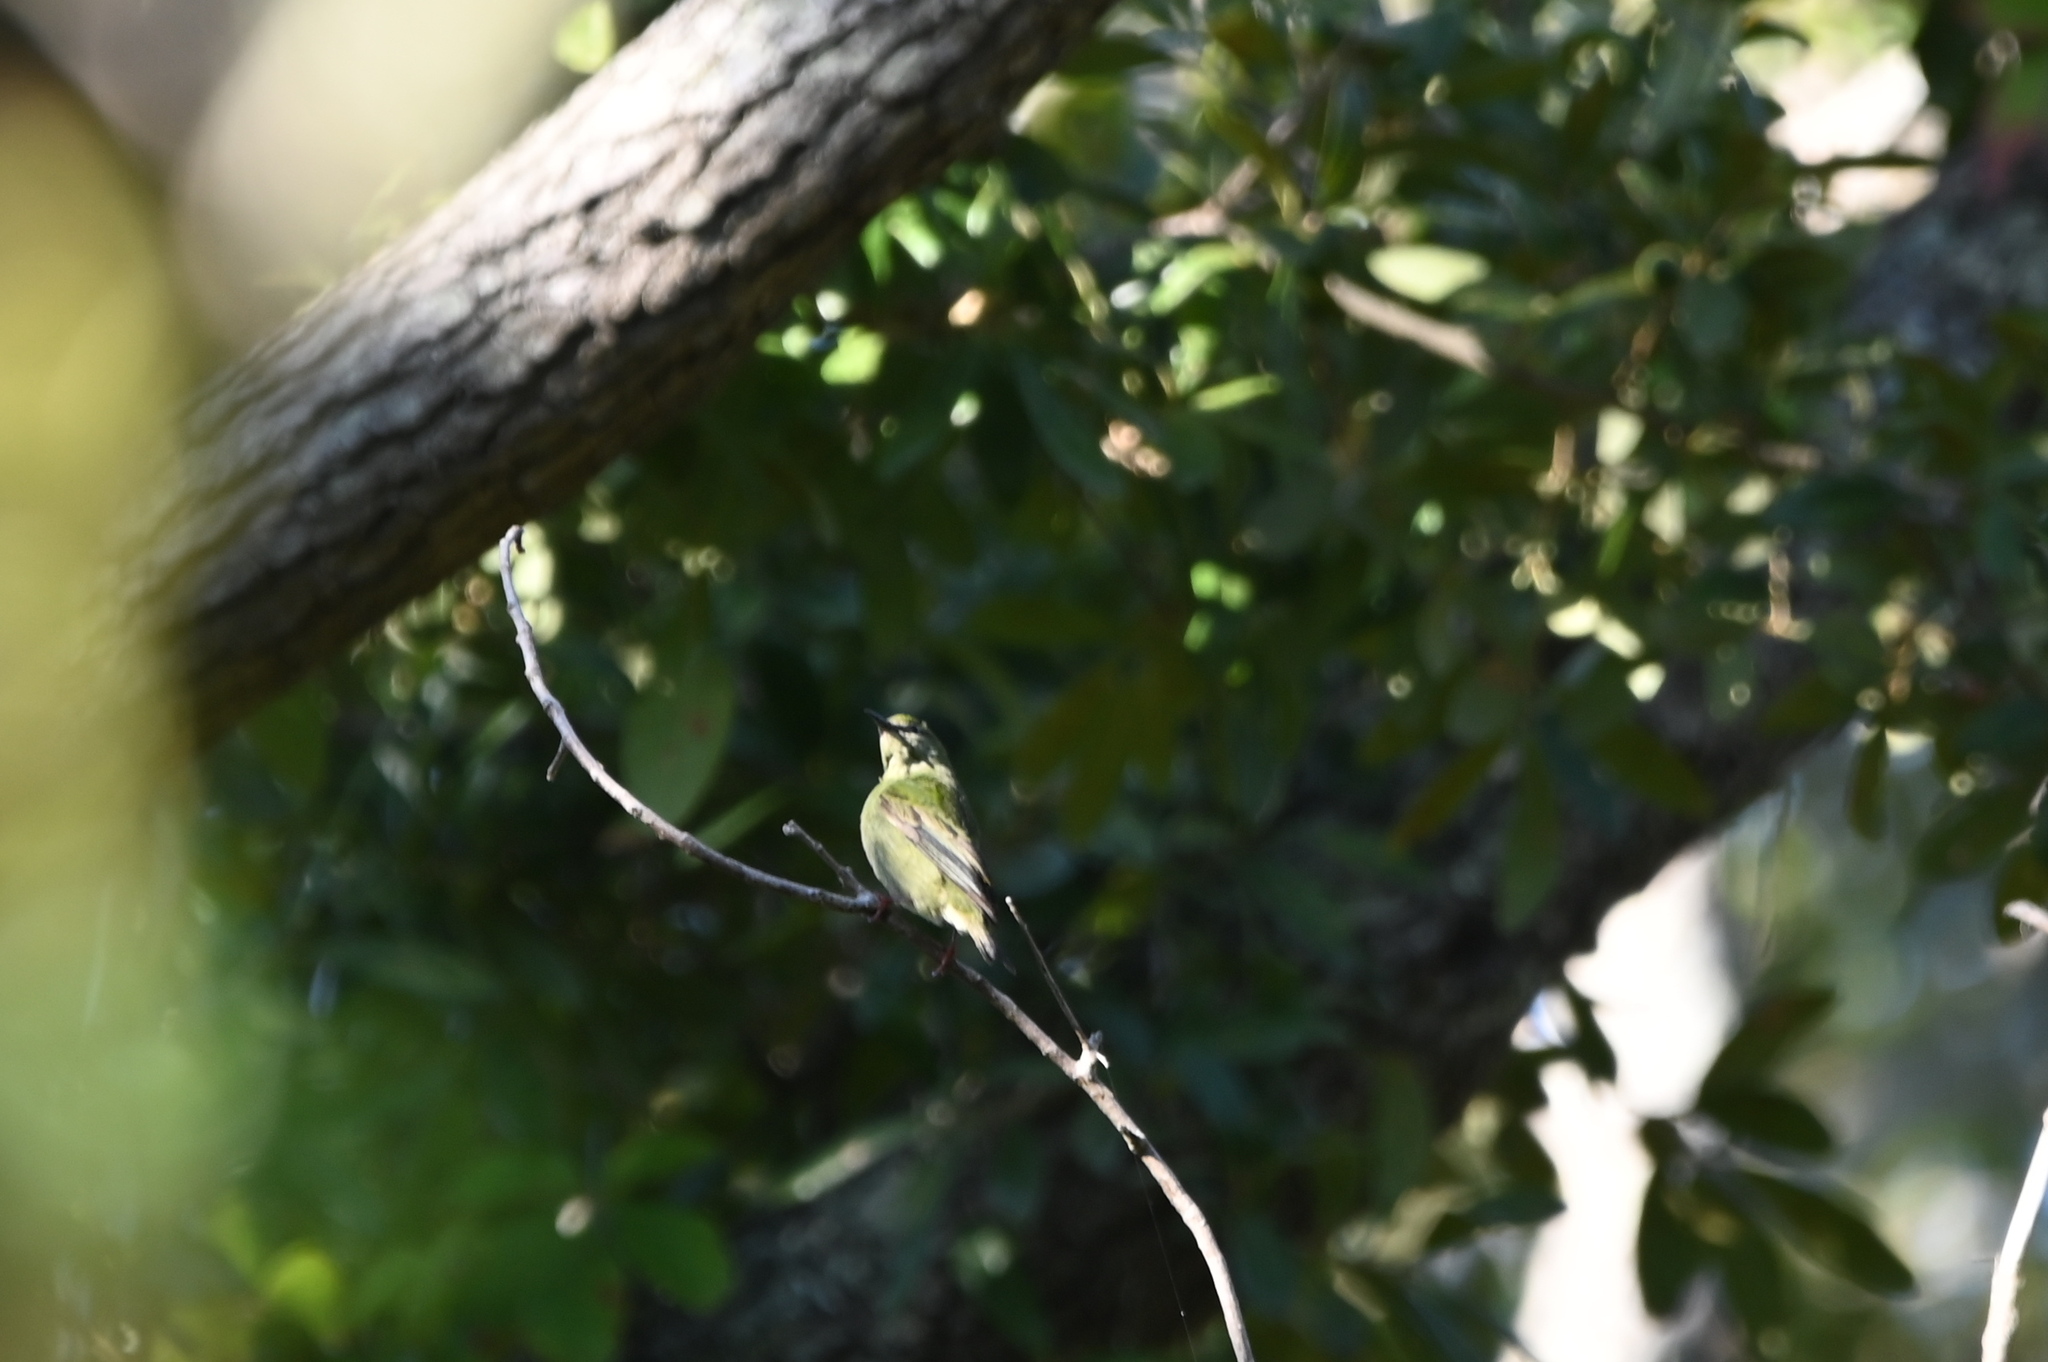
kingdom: Animalia
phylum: Chordata
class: Aves
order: Passeriformes
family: Thraupidae
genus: Cyanerpes
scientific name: Cyanerpes cyaneus
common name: Red-legged honeycreeper
